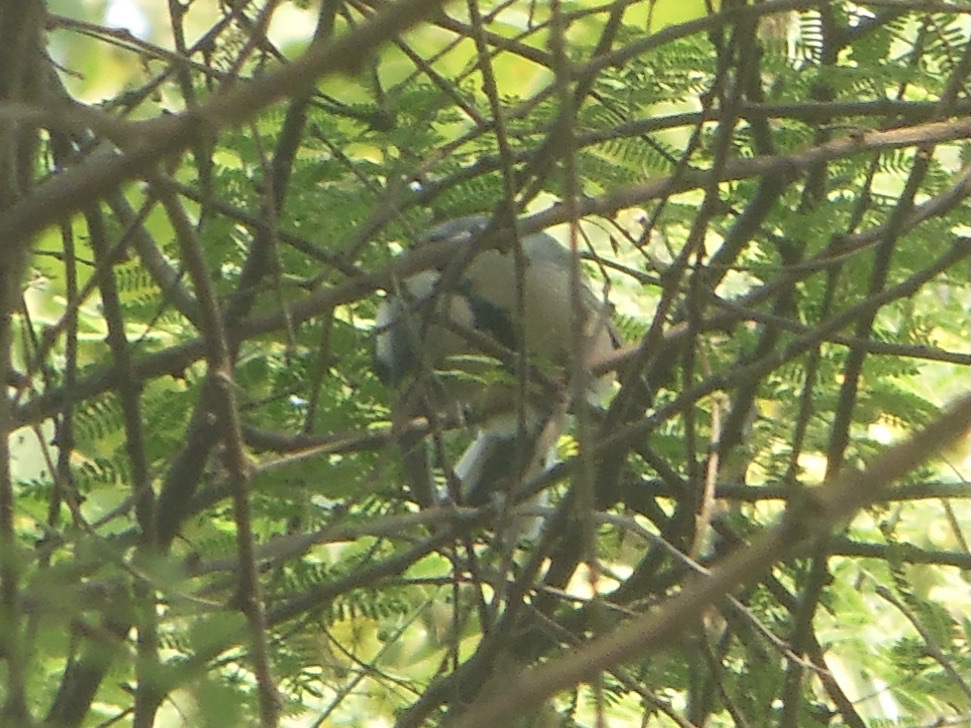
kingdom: Animalia
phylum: Chordata
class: Aves
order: Passeriformes
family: Paridae
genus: Parus
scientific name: Parus cinereus
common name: Cinereous tit
